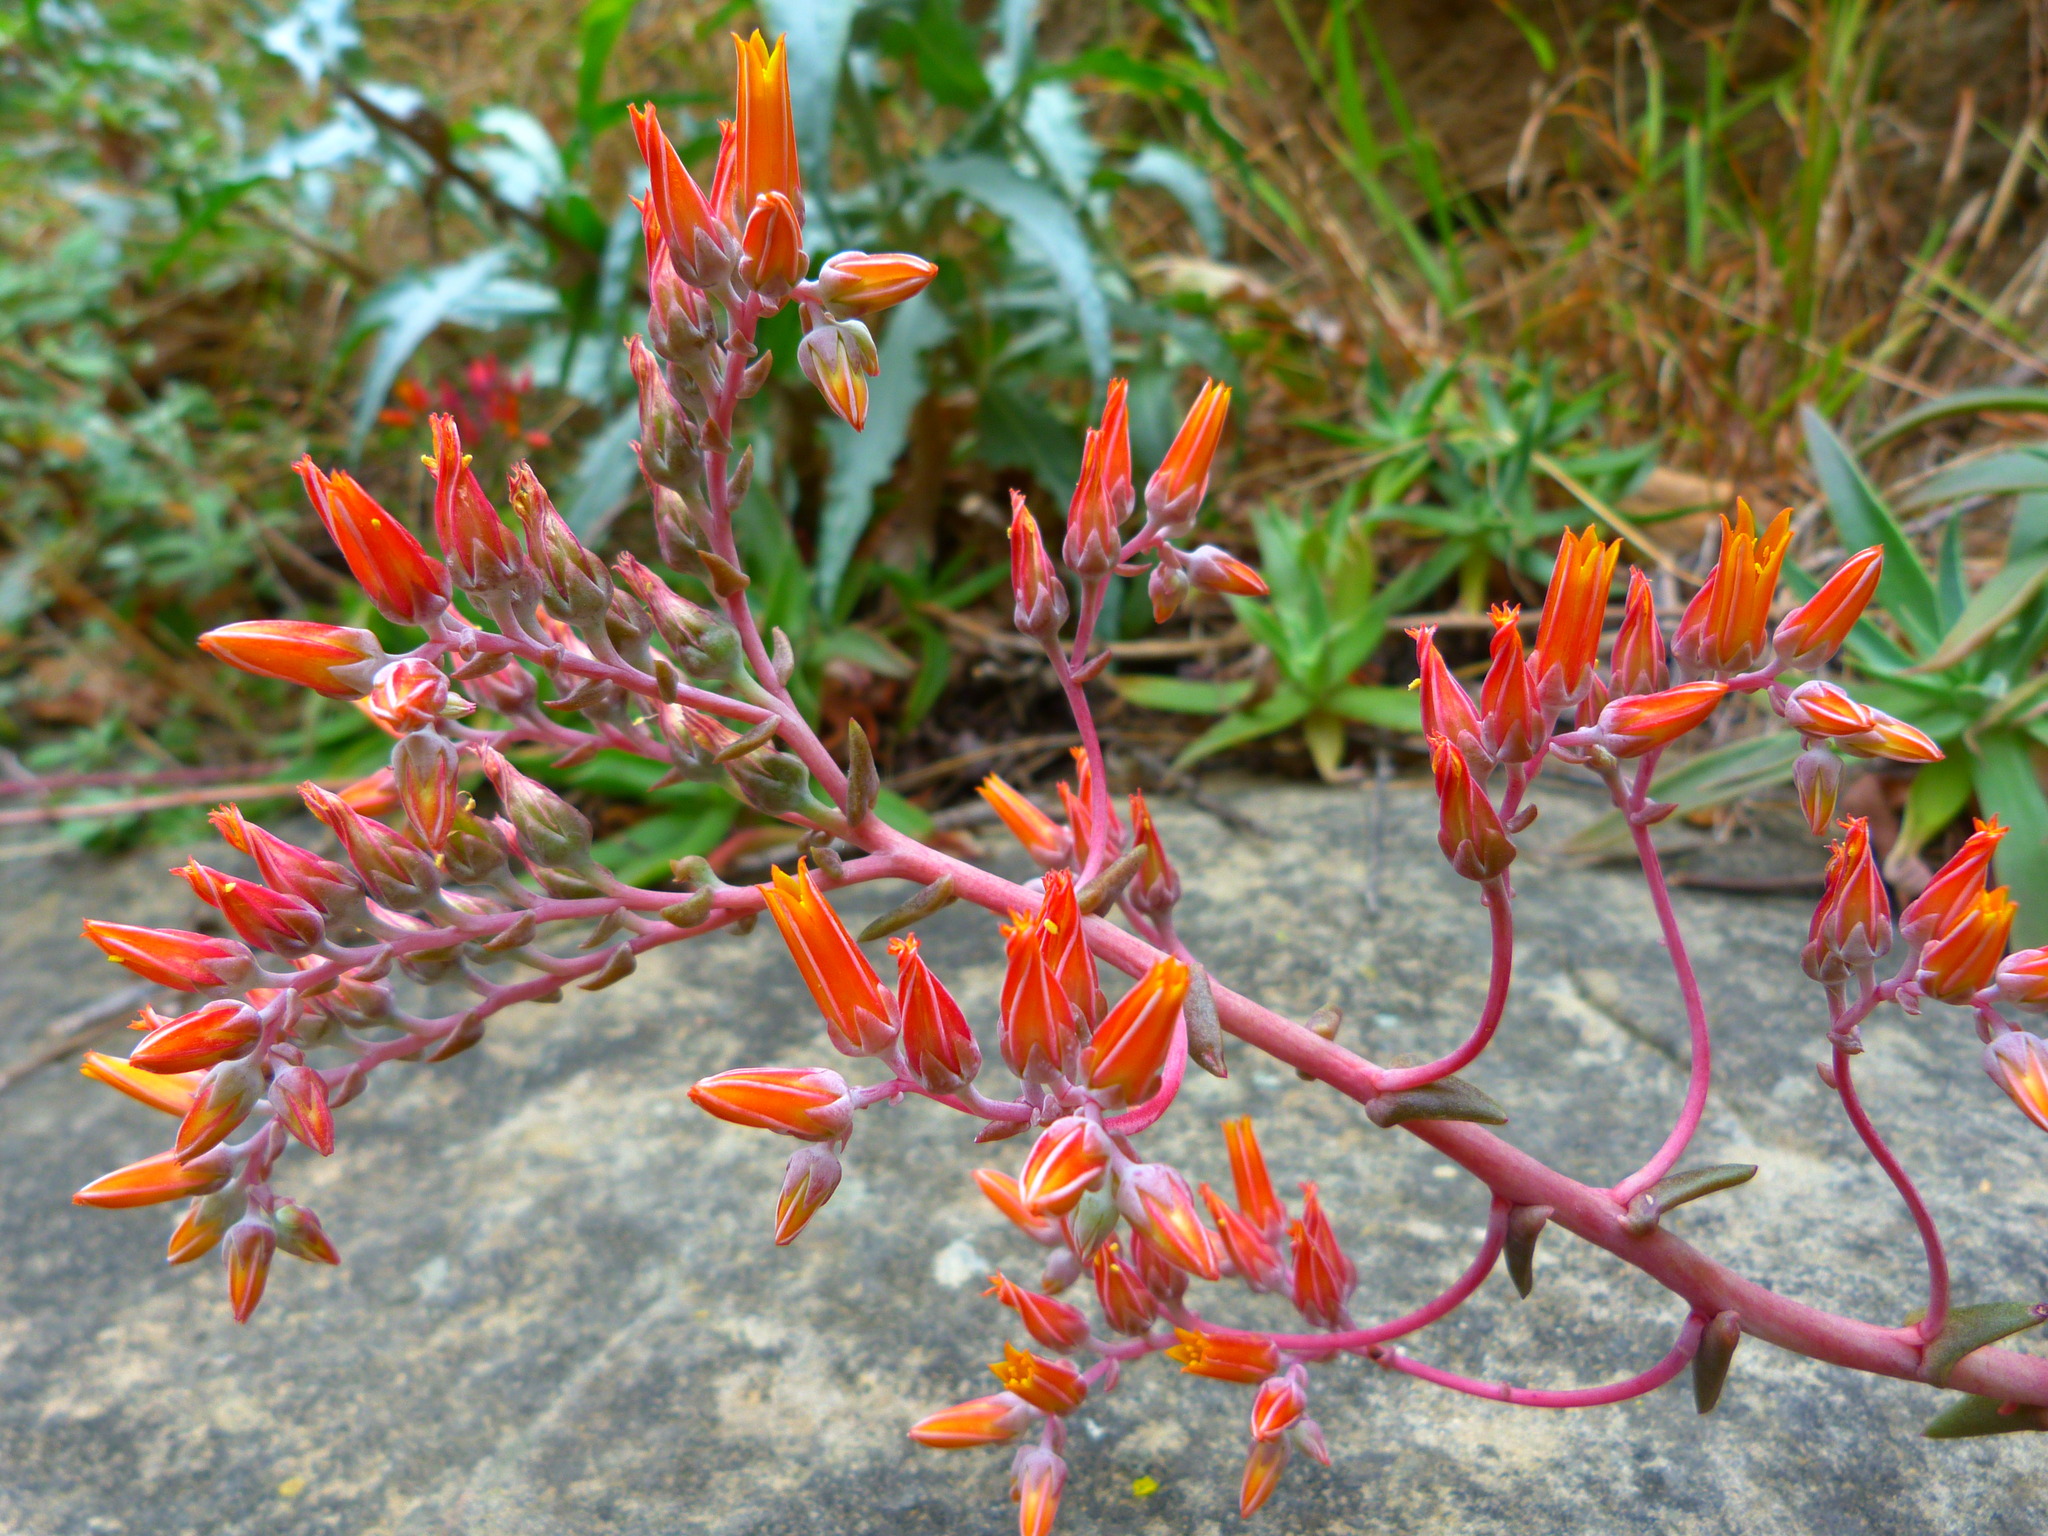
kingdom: Plantae
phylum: Tracheophyta
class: Magnoliopsida
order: Saxifragales
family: Crassulaceae
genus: Dudleya
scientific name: Dudleya lanceolata
